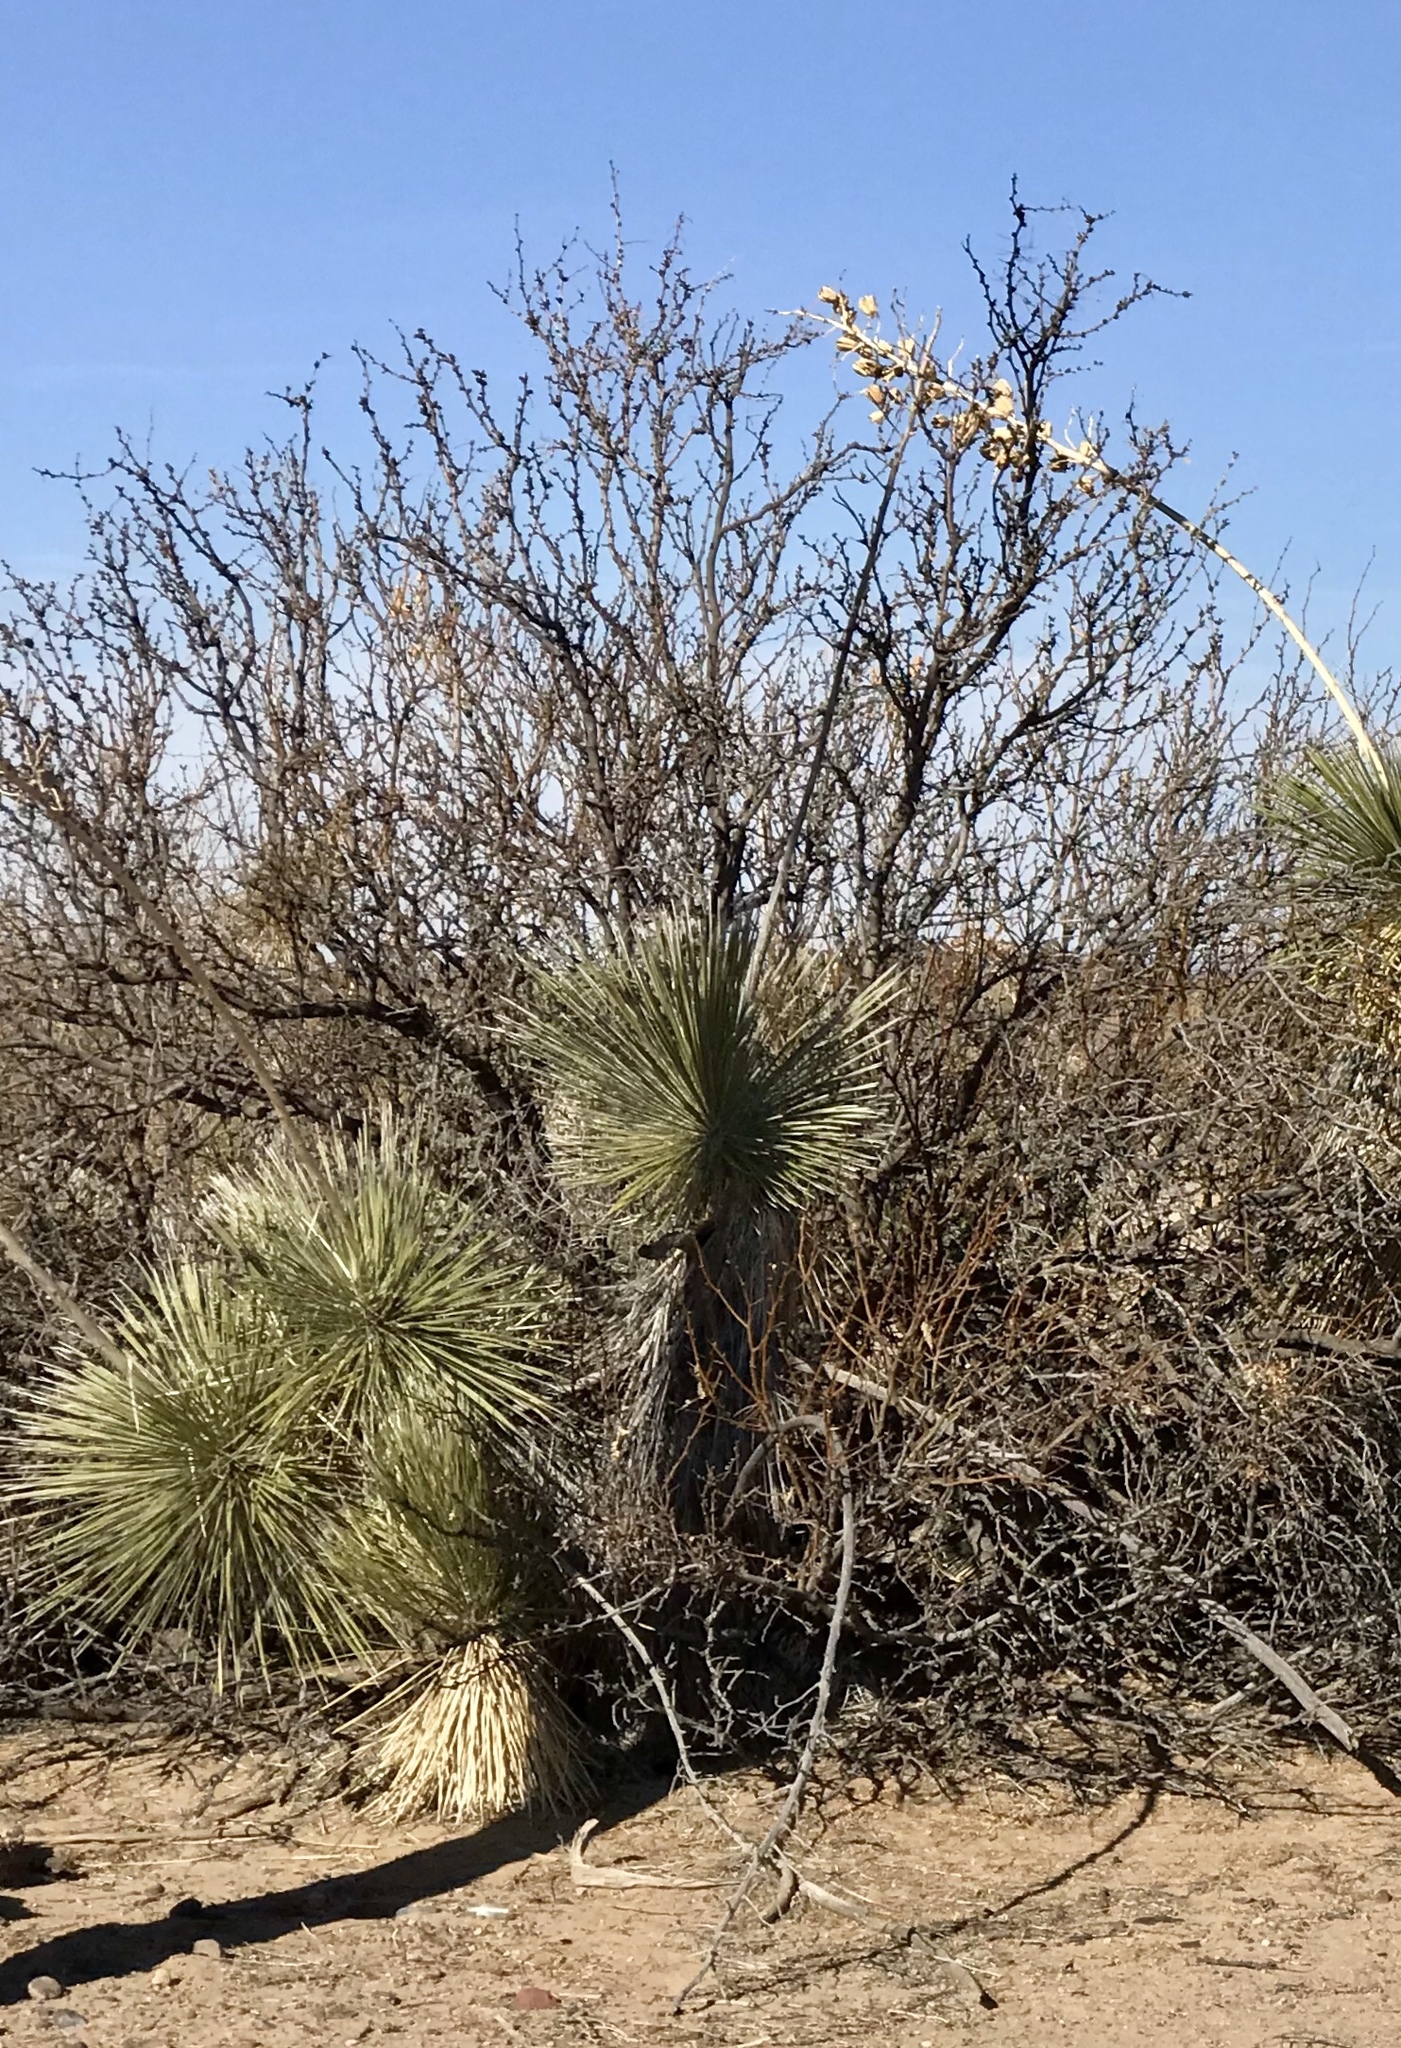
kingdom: Plantae
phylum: Tracheophyta
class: Liliopsida
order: Asparagales
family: Asparagaceae
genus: Yucca
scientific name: Yucca elata
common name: Palmella
